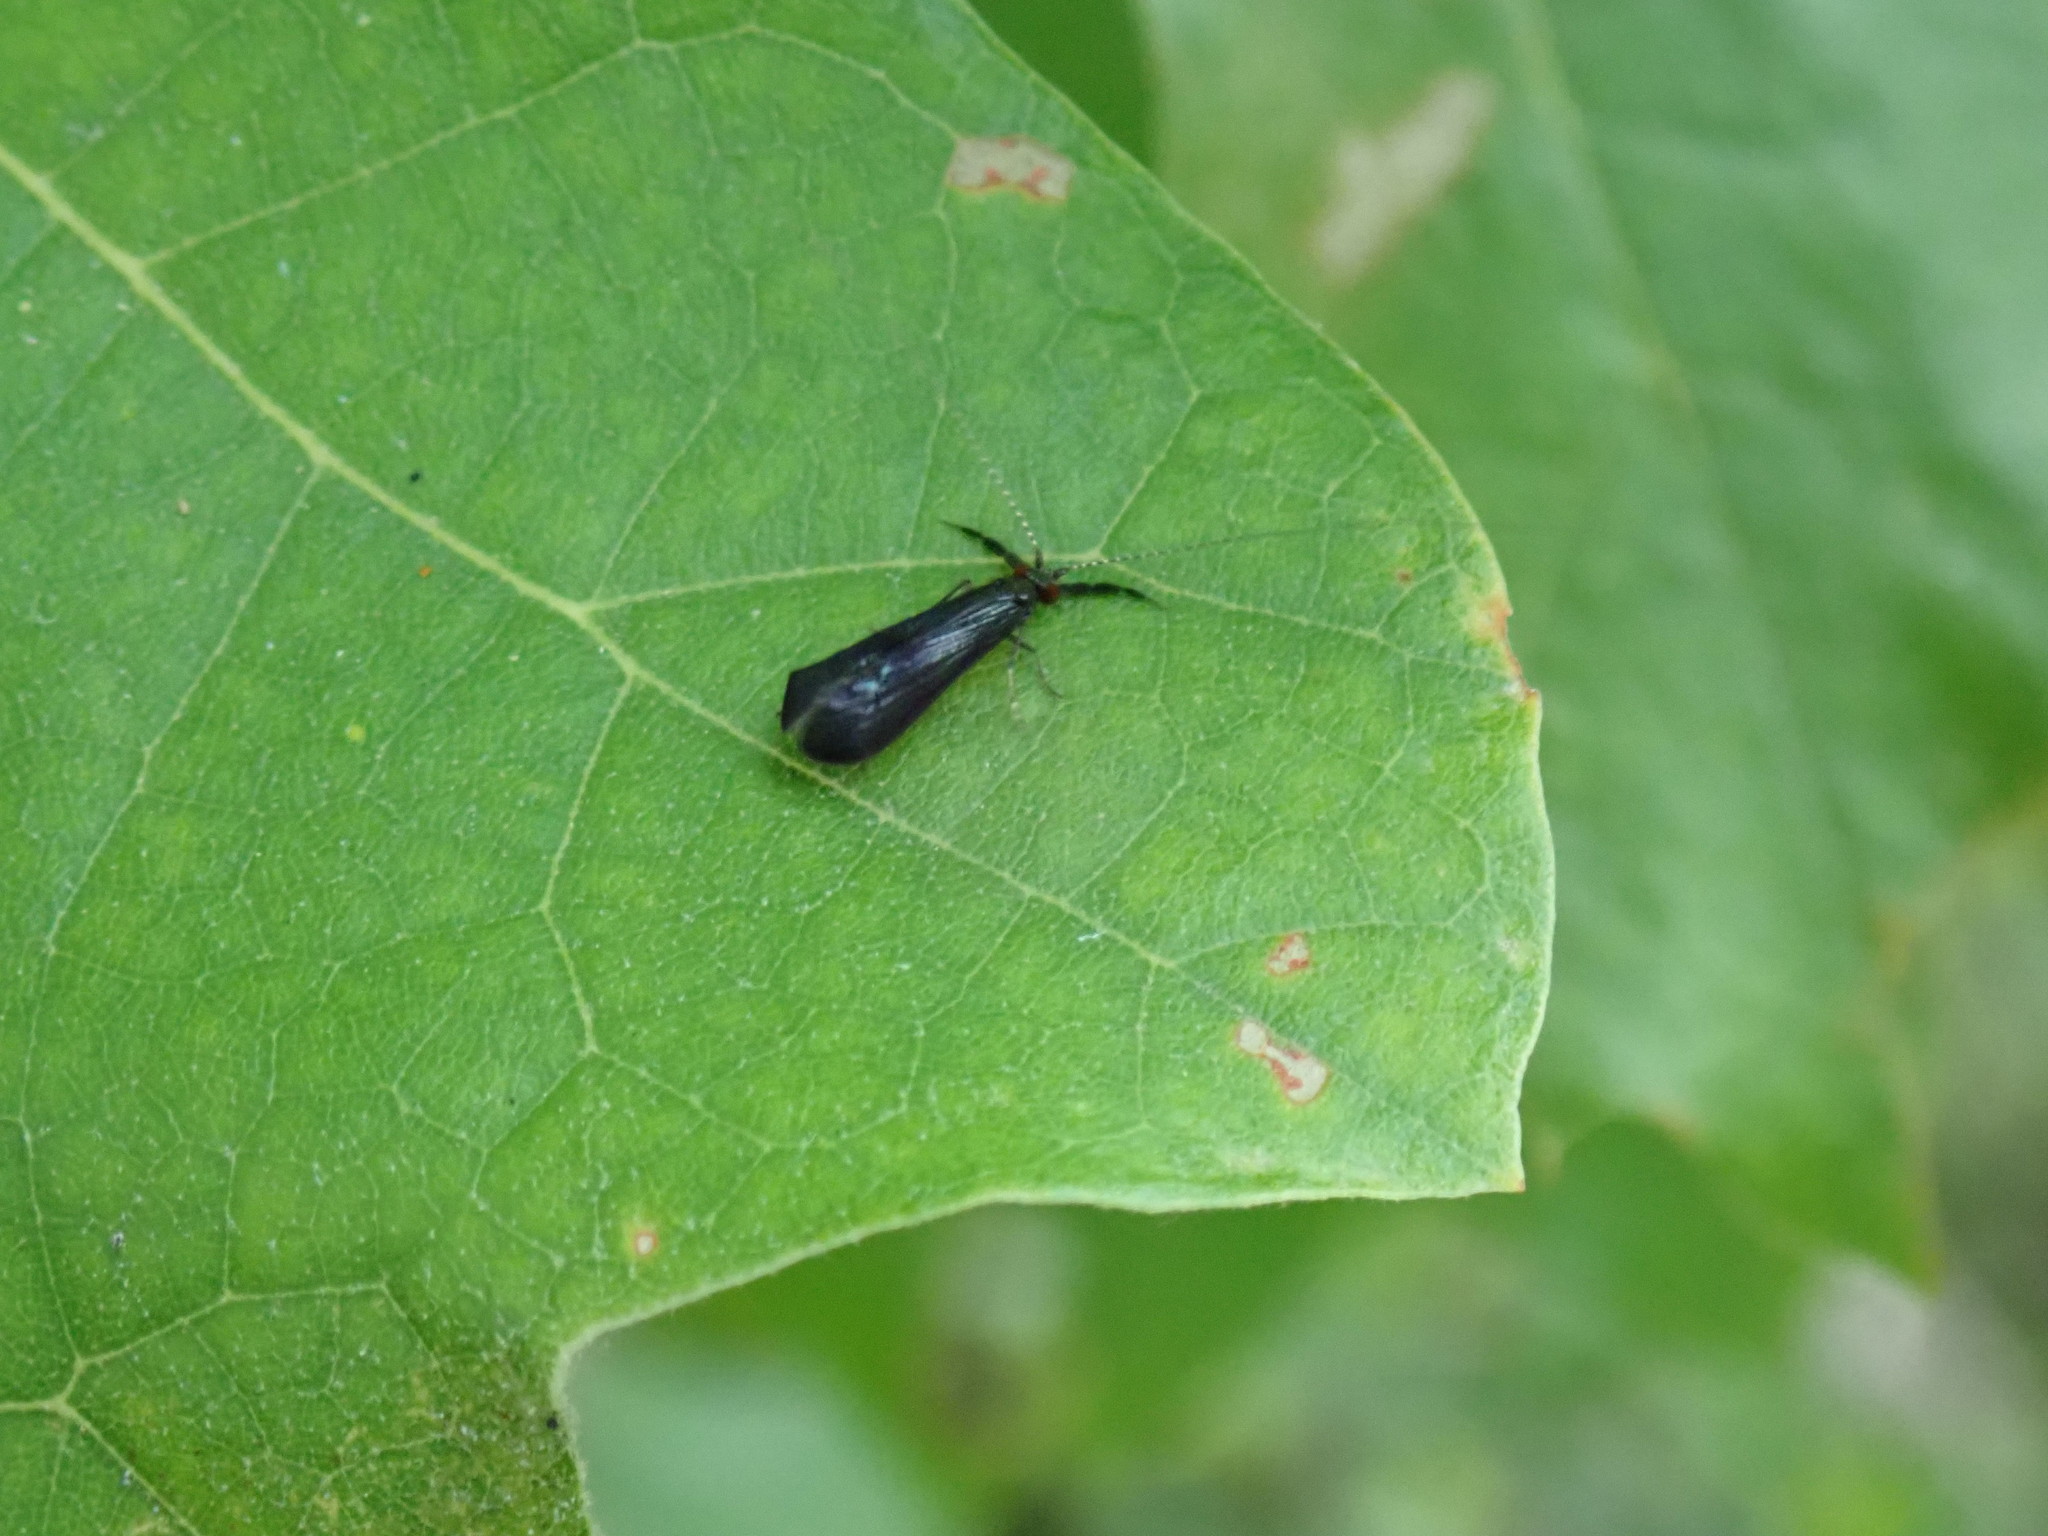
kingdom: Animalia
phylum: Arthropoda
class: Insecta
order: Trichoptera
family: Leptoceridae
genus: Mystacides
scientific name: Mystacides sepulchralis
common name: Black dancer caddisfly
